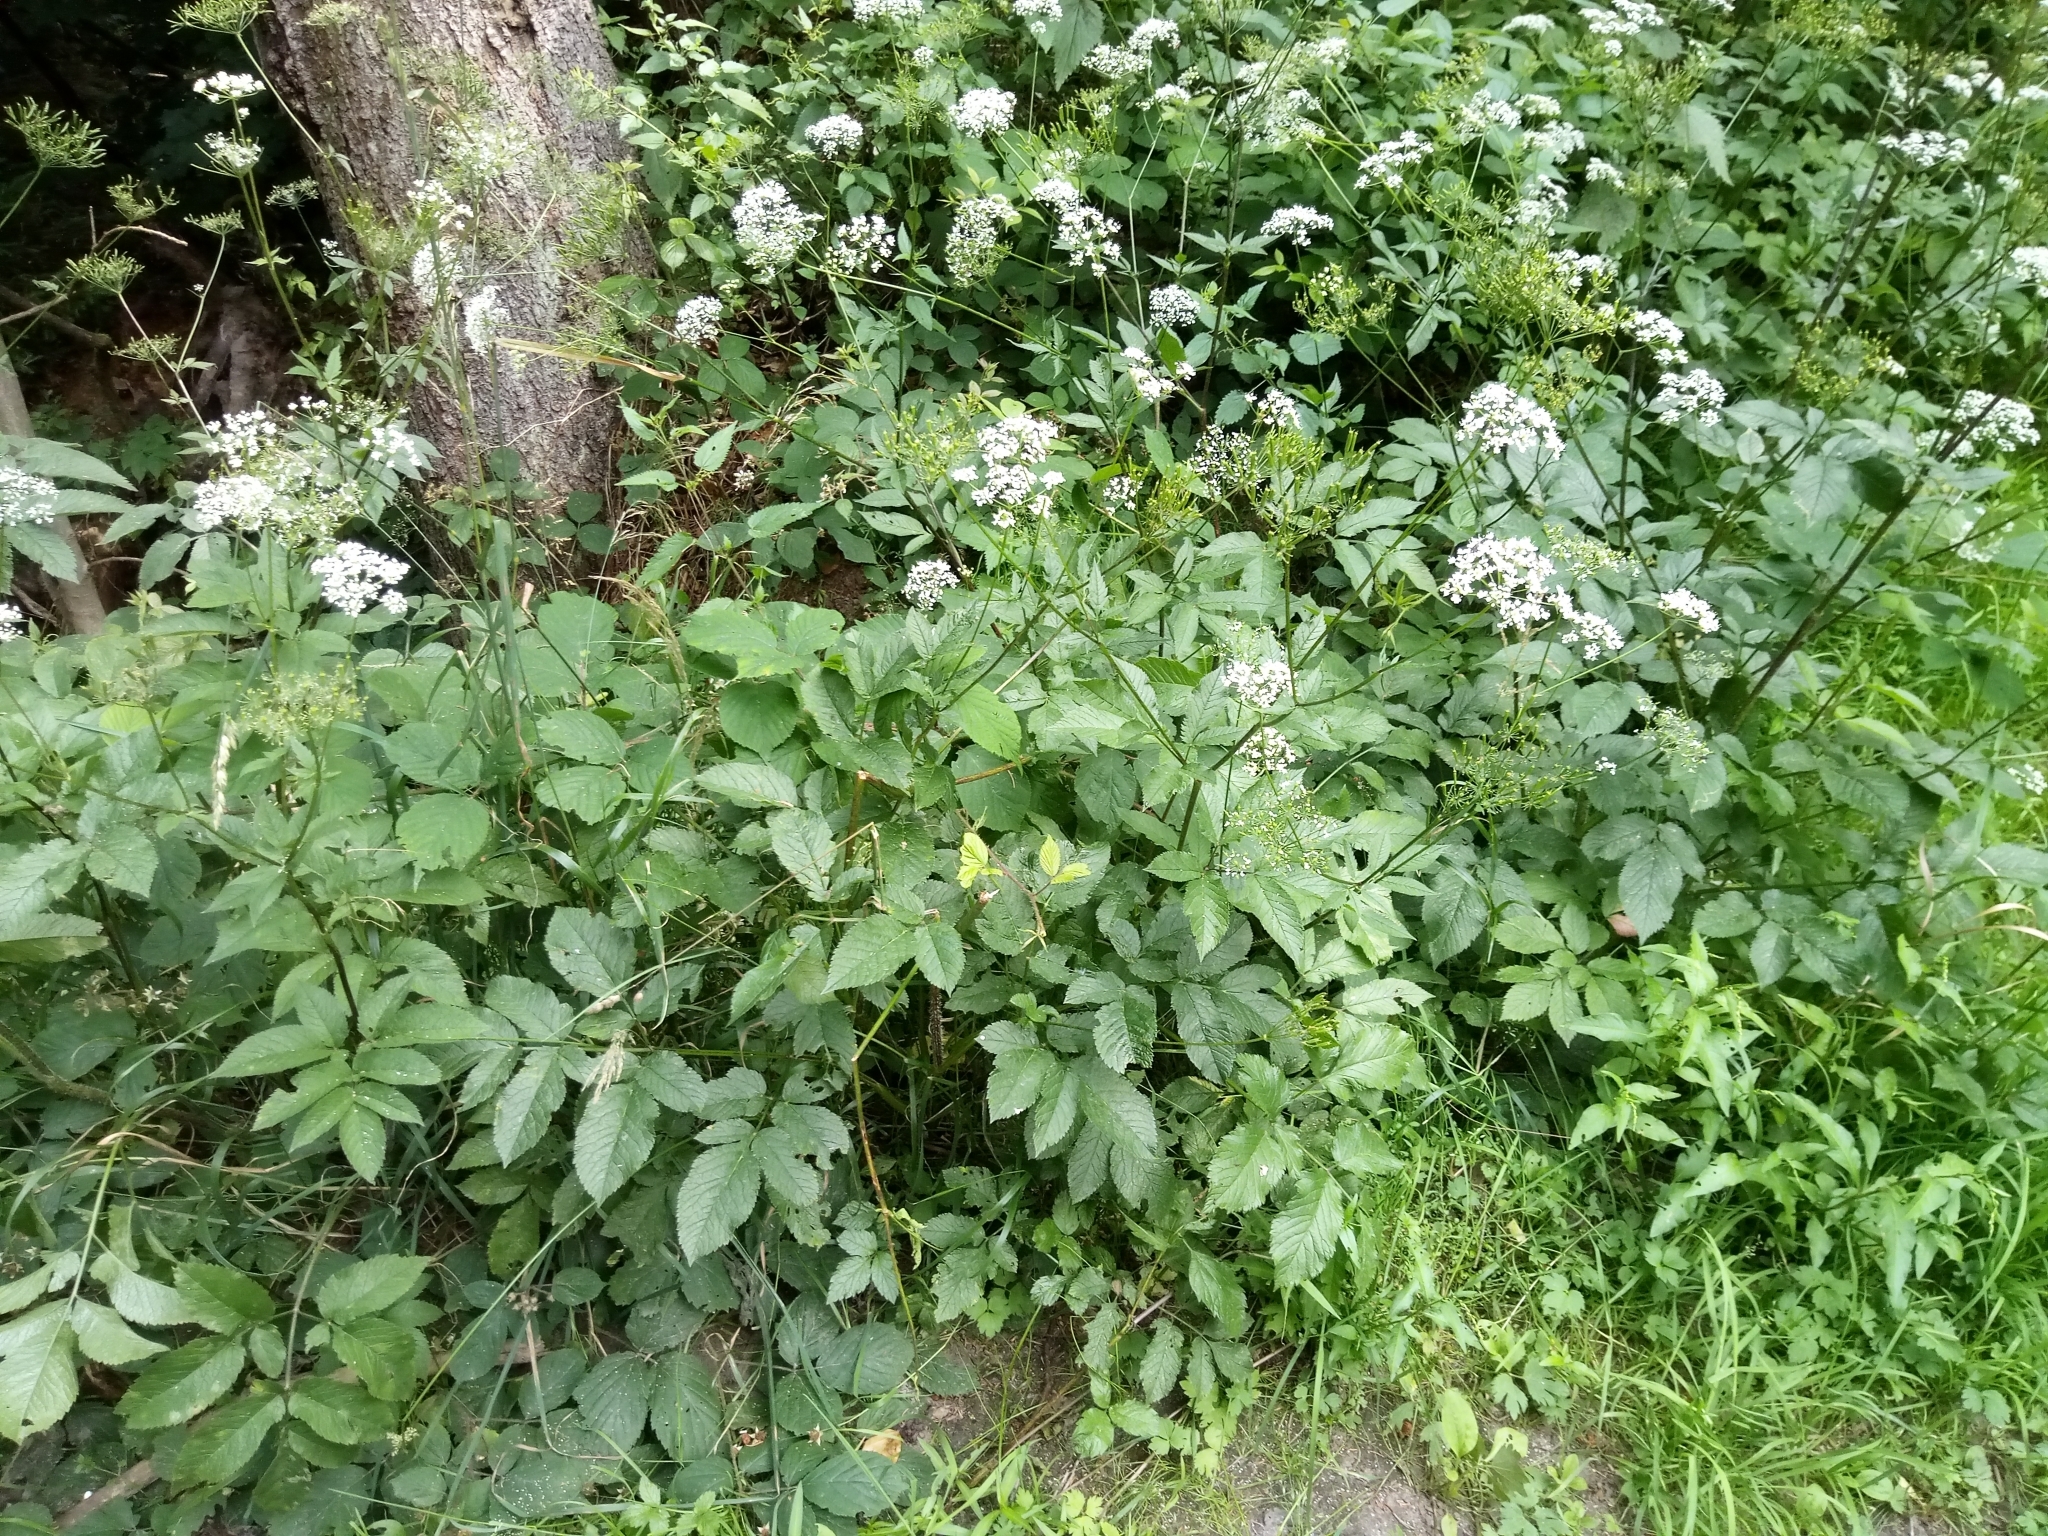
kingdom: Plantae
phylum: Tracheophyta
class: Magnoliopsida
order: Apiales
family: Apiaceae
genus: Chaerophyllum
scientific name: Chaerophyllum aromaticum
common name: Broadleaf chervil
